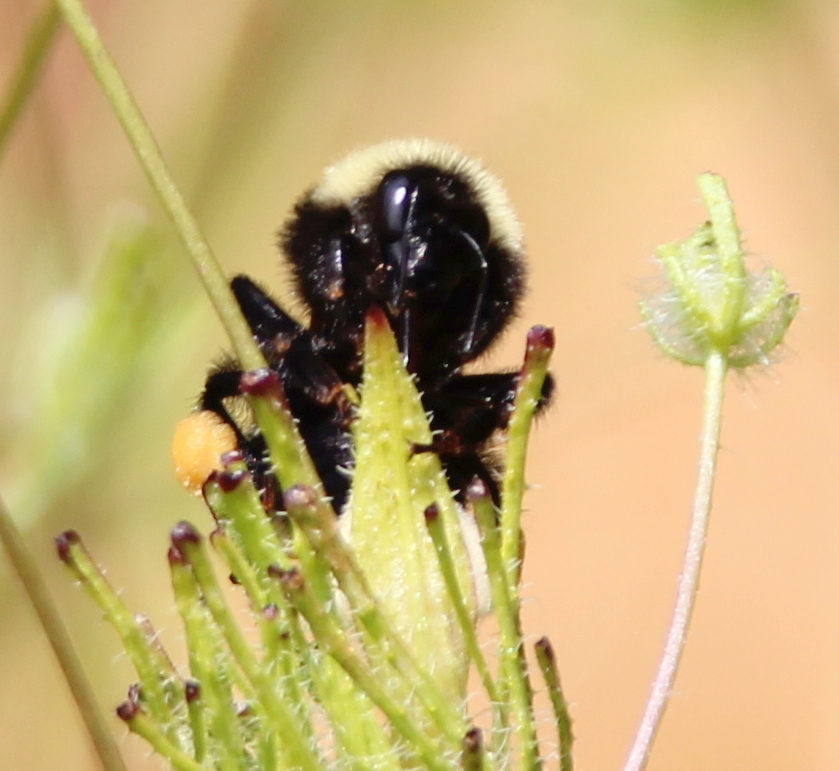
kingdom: Animalia
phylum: Arthropoda
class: Insecta
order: Hymenoptera
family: Apidae
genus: Bombus
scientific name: Bombus californicus
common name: California bumble bee
